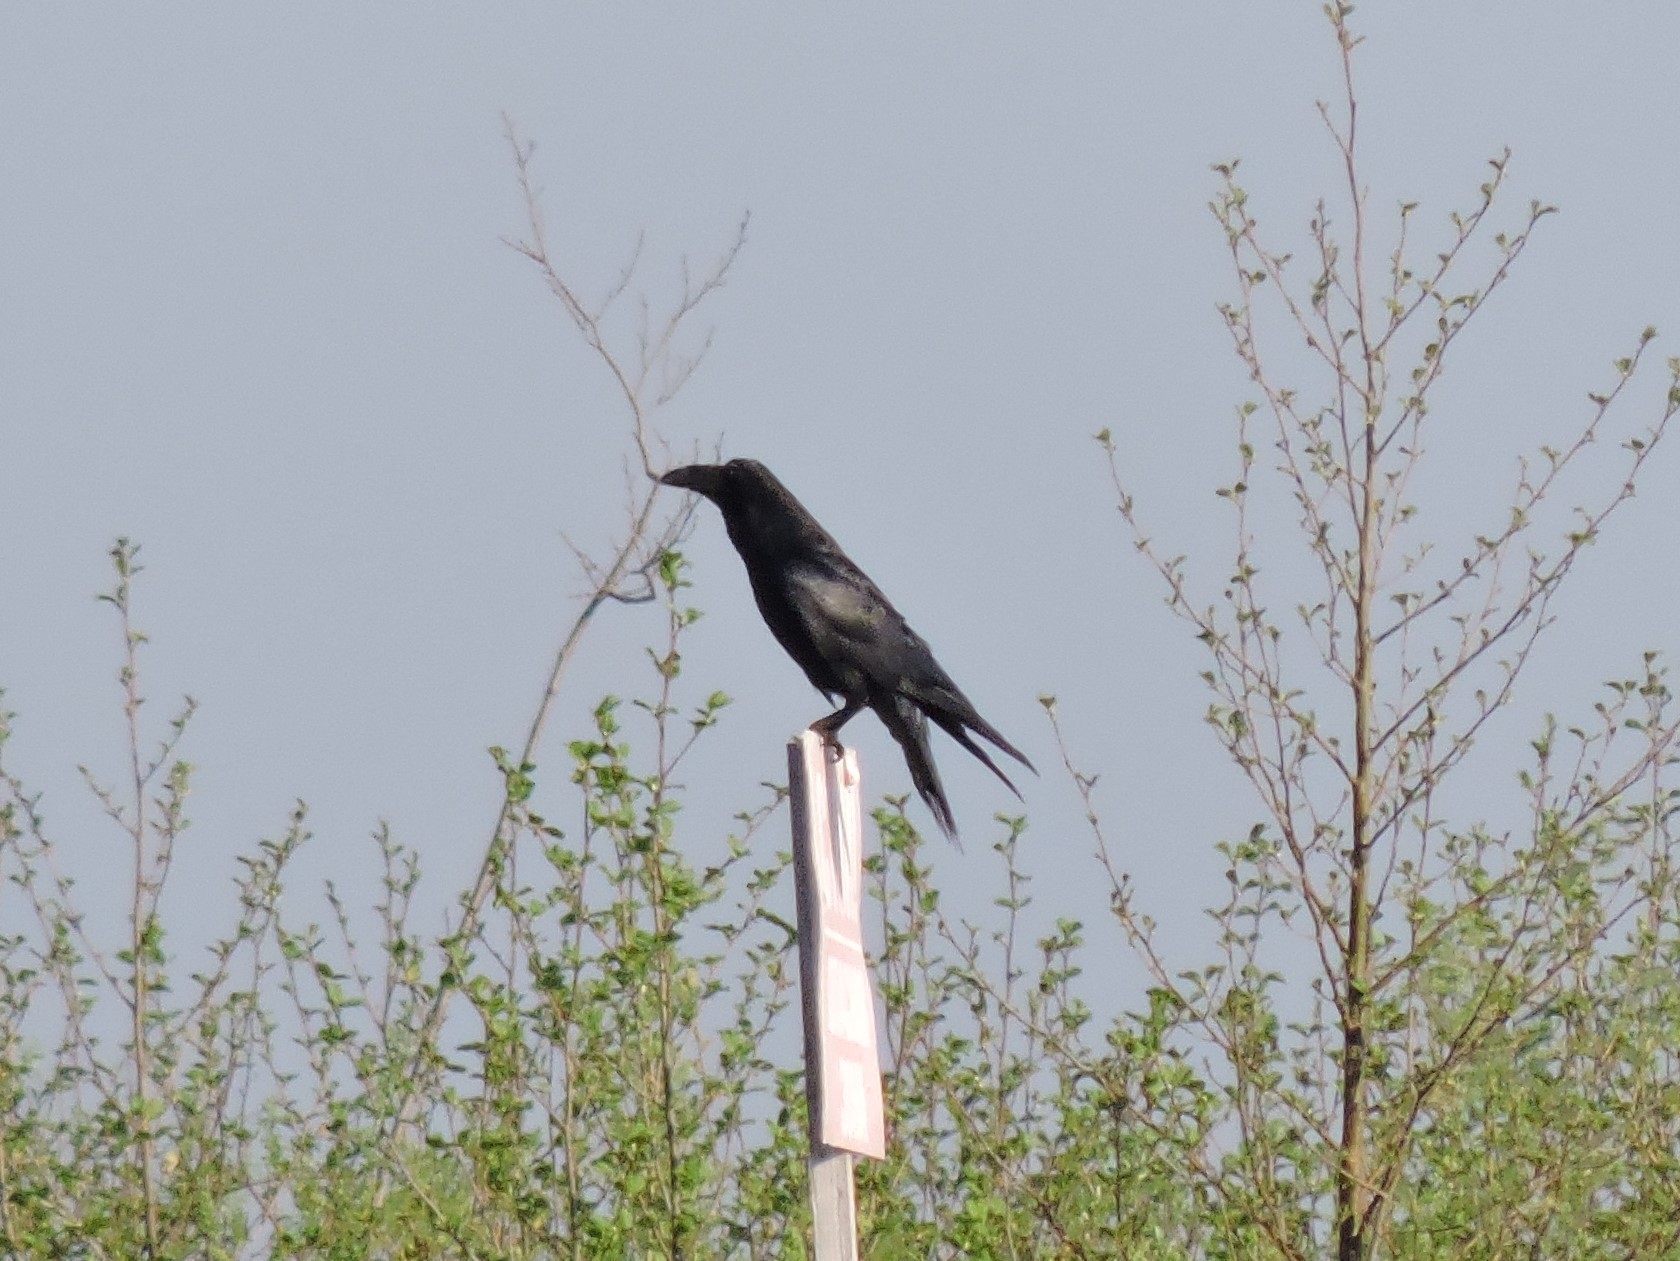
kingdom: Animalia
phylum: Chordata
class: Aves
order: Passeriformes
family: Corvidae
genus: Corvus
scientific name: Corvus corax
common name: Common raven
